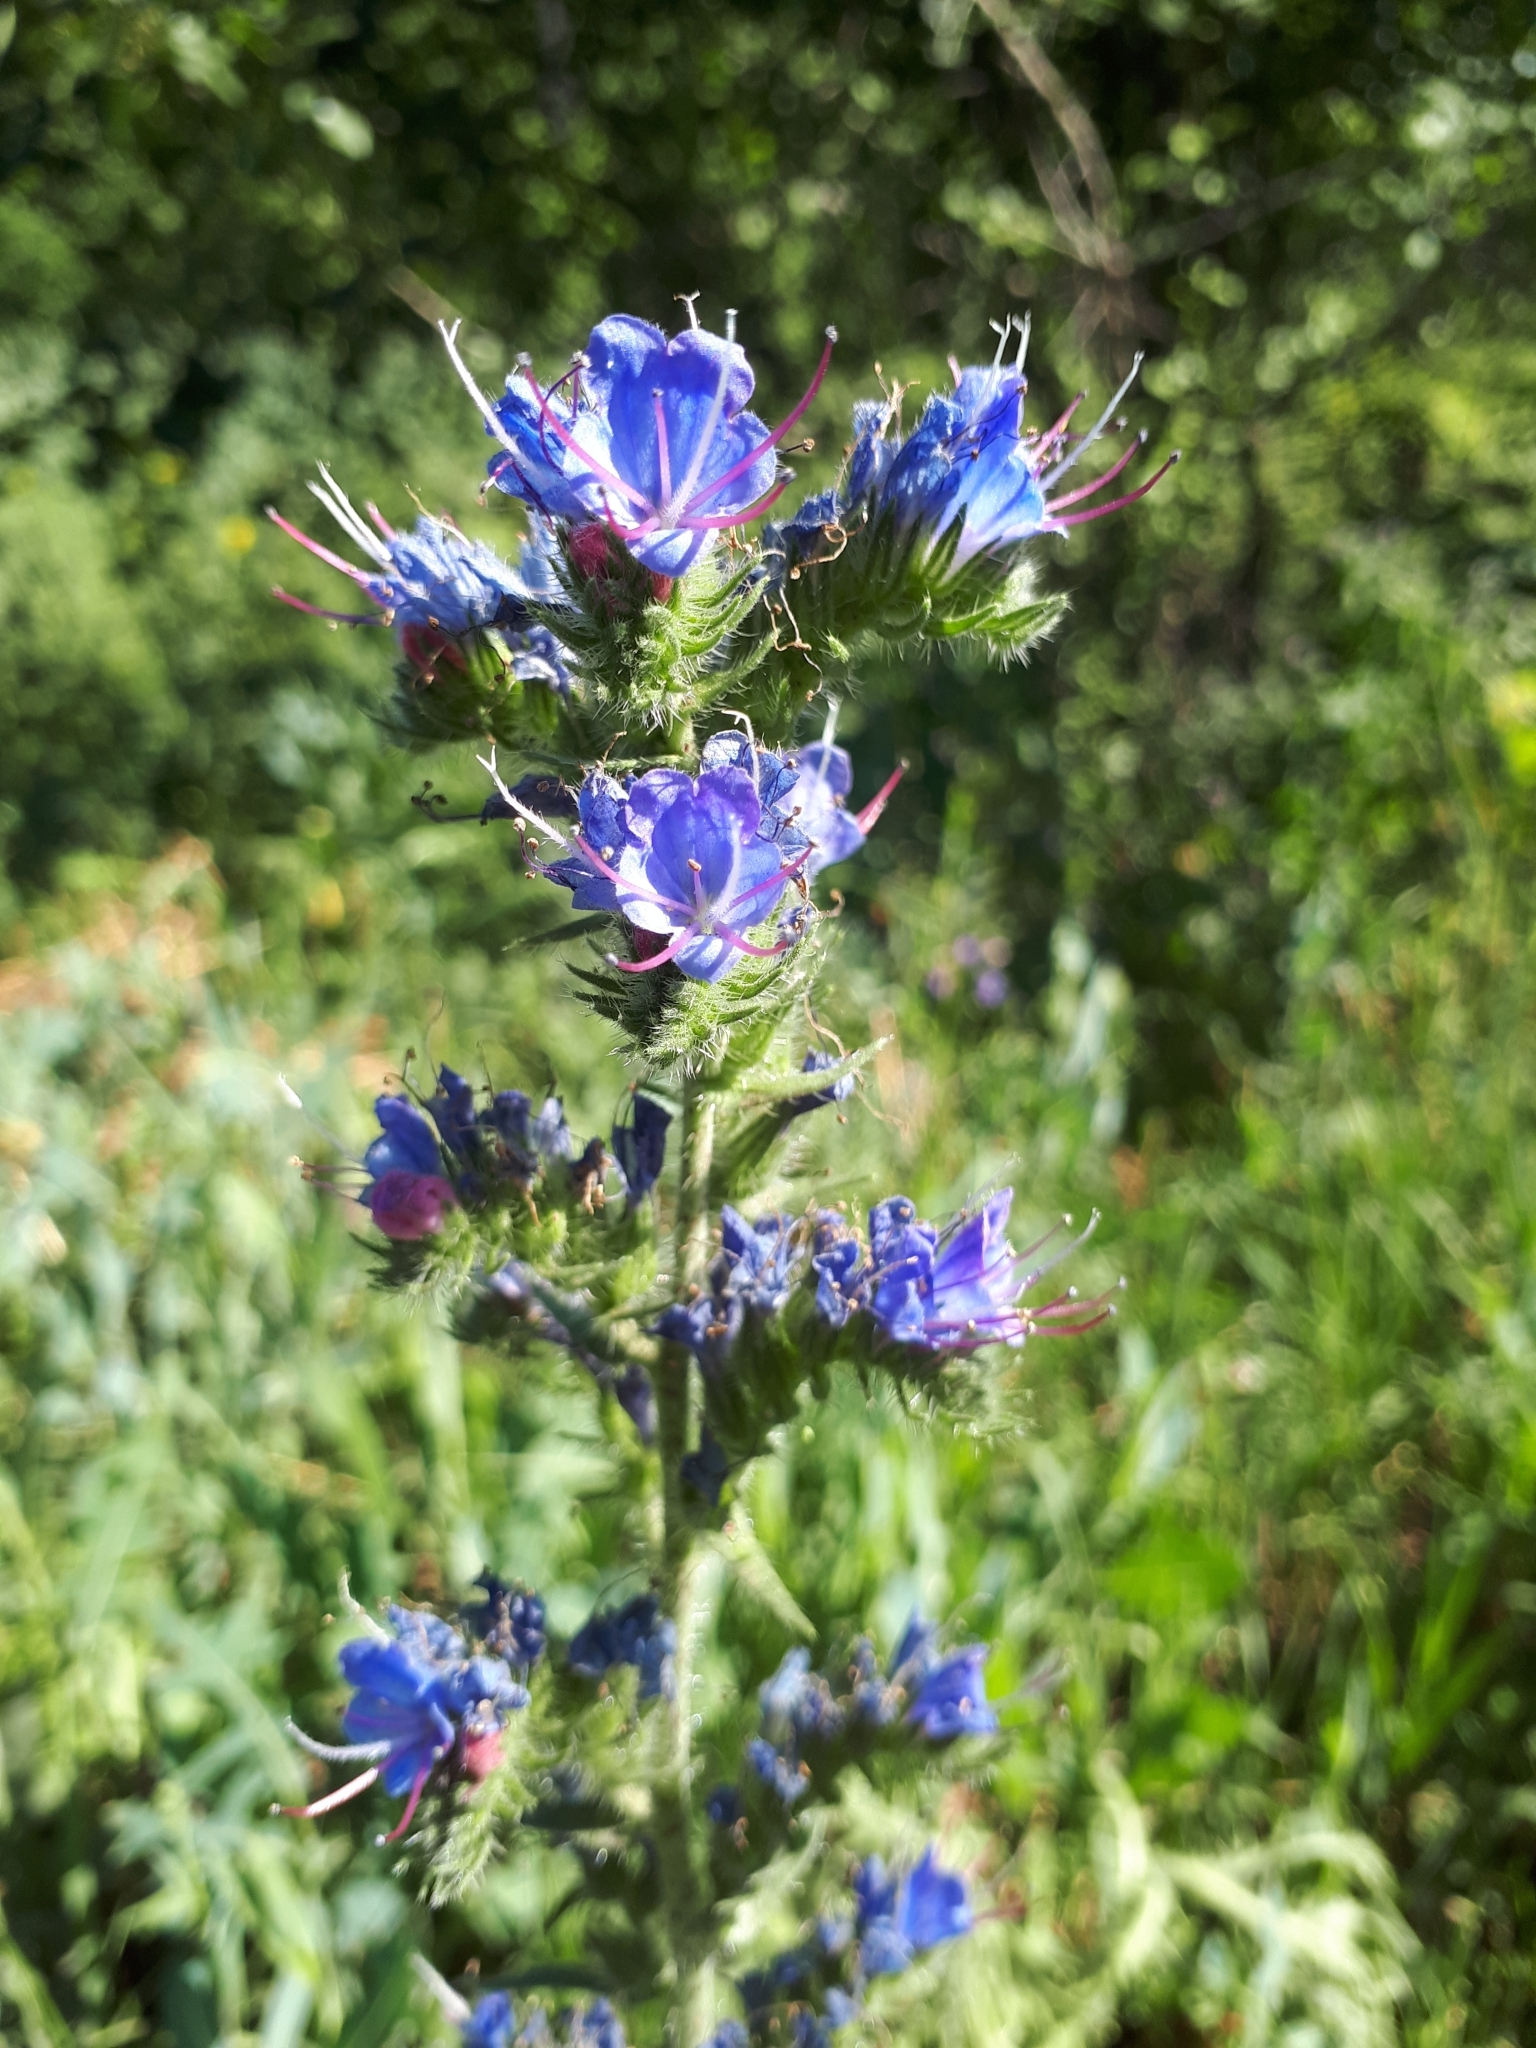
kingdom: Plantae
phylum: Tracheophyta
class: Magnoliopsida
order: Boraginales
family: Boraginaceae
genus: Echium
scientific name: Echium vulgare
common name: Common viper's bugloss
